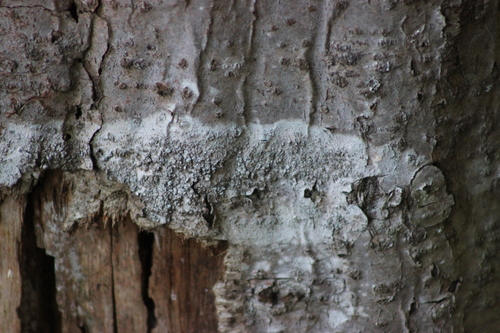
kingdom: Fungi
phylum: Ascomycota
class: Lecanoromycetes
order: Lecanorales
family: Lecanoraceae
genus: Lecanora
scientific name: Lecanora
